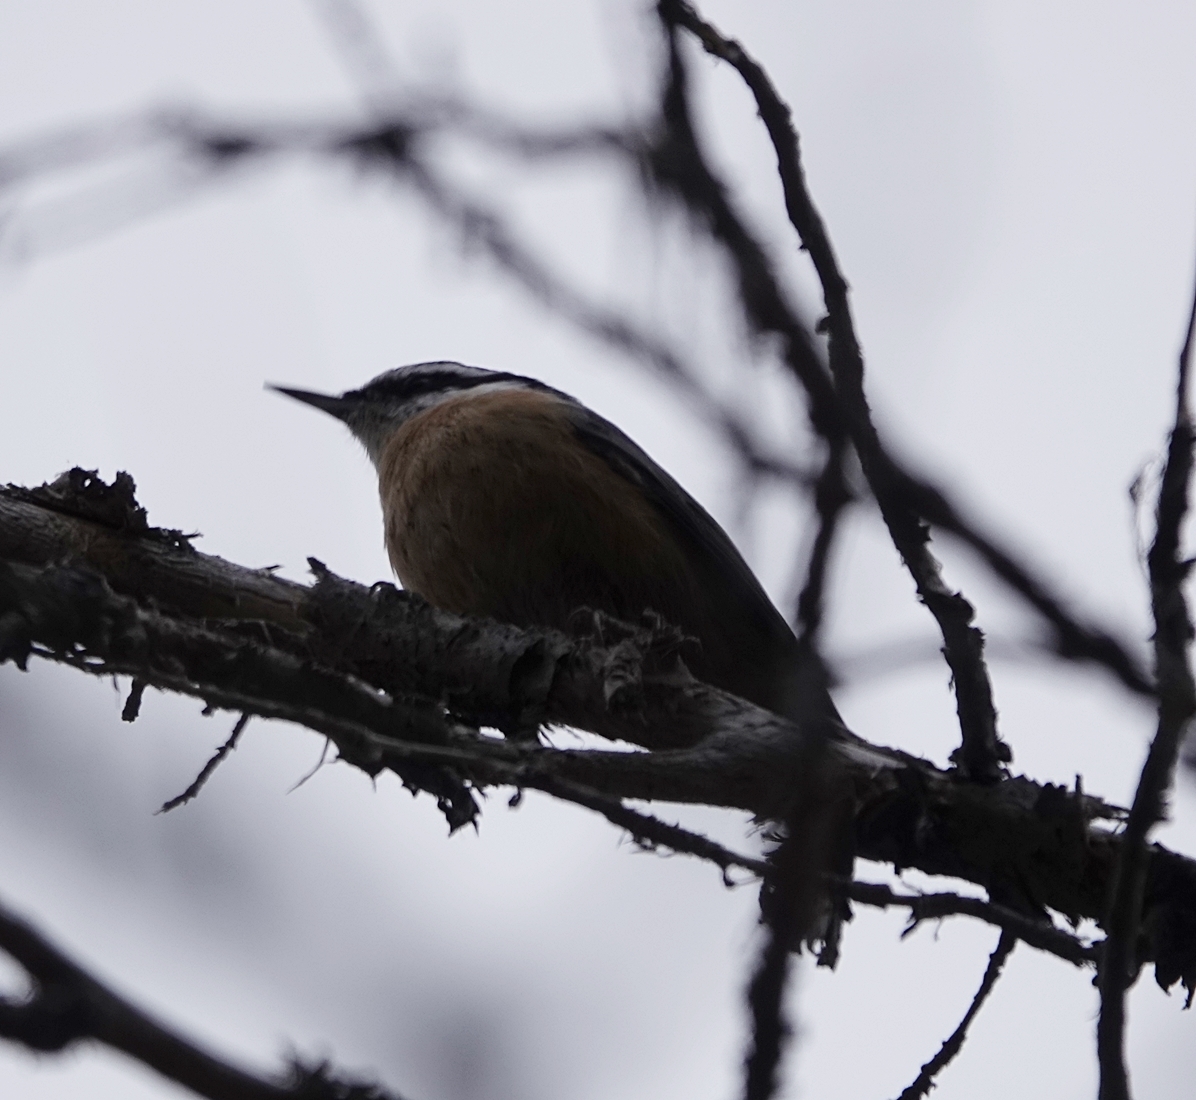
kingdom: Animalia
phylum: Chordata
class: Aves
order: Passeriformes
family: Sittidae
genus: Sitta
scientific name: Sitta canadensis
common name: Red-breasted nuthatch
